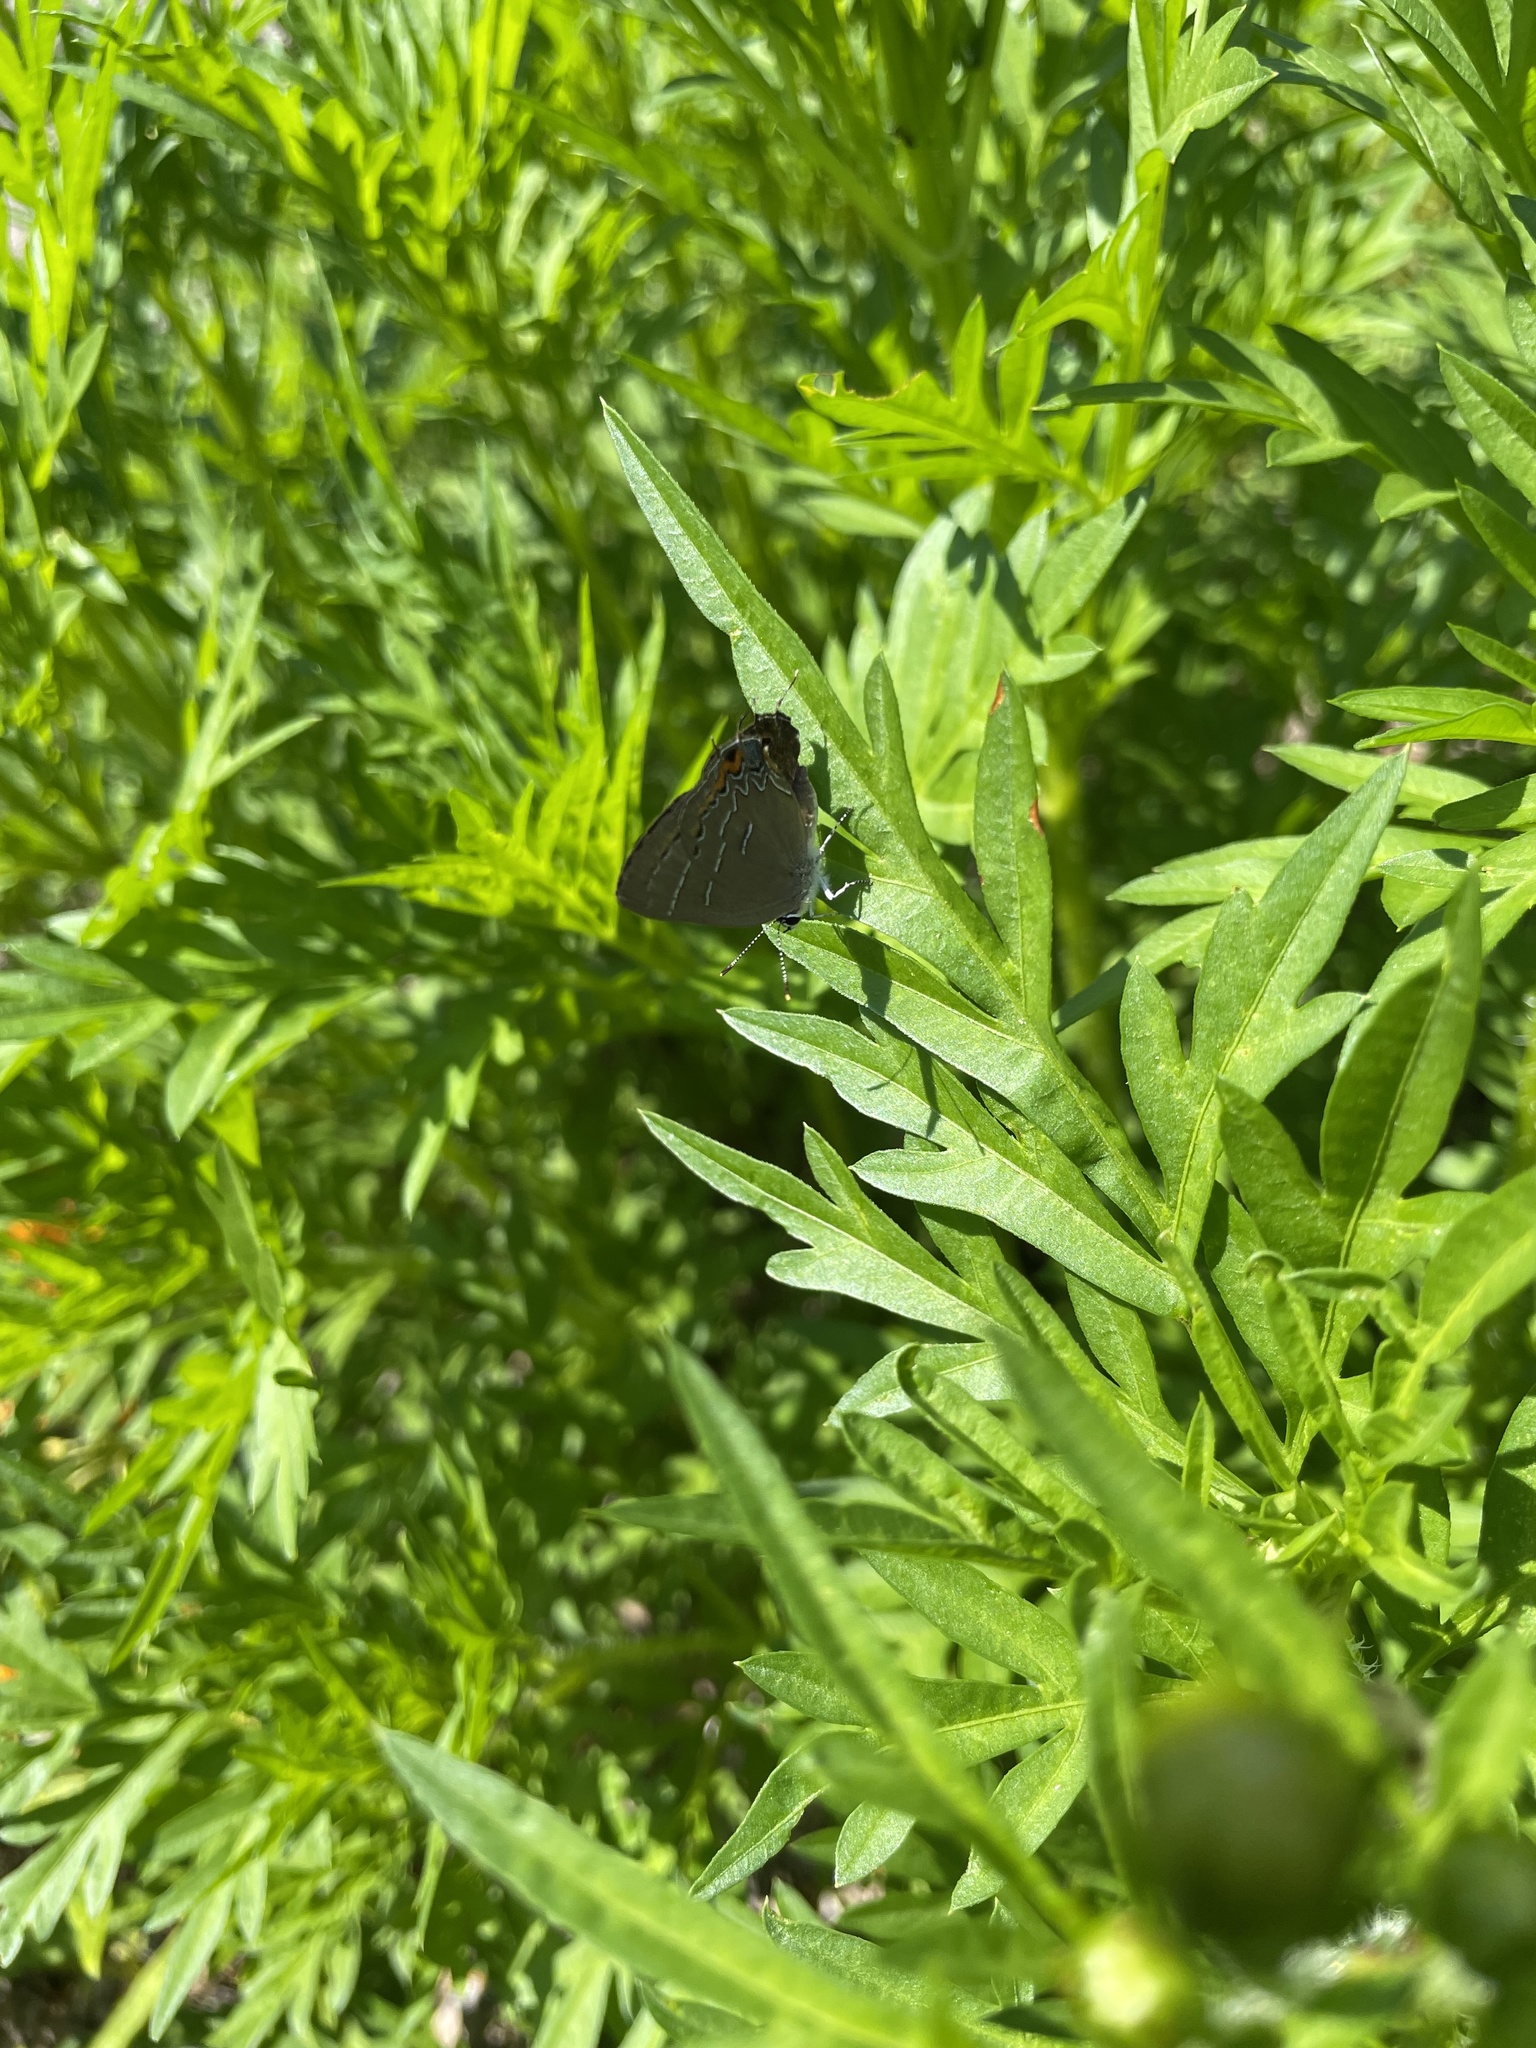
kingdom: Animalia
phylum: Arthropoda
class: Insecta
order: Lepidoptera
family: Lycaenidae
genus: Phaeostrymon
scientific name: Phaeostrymon alcestis
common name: Soapberry hairstreak
